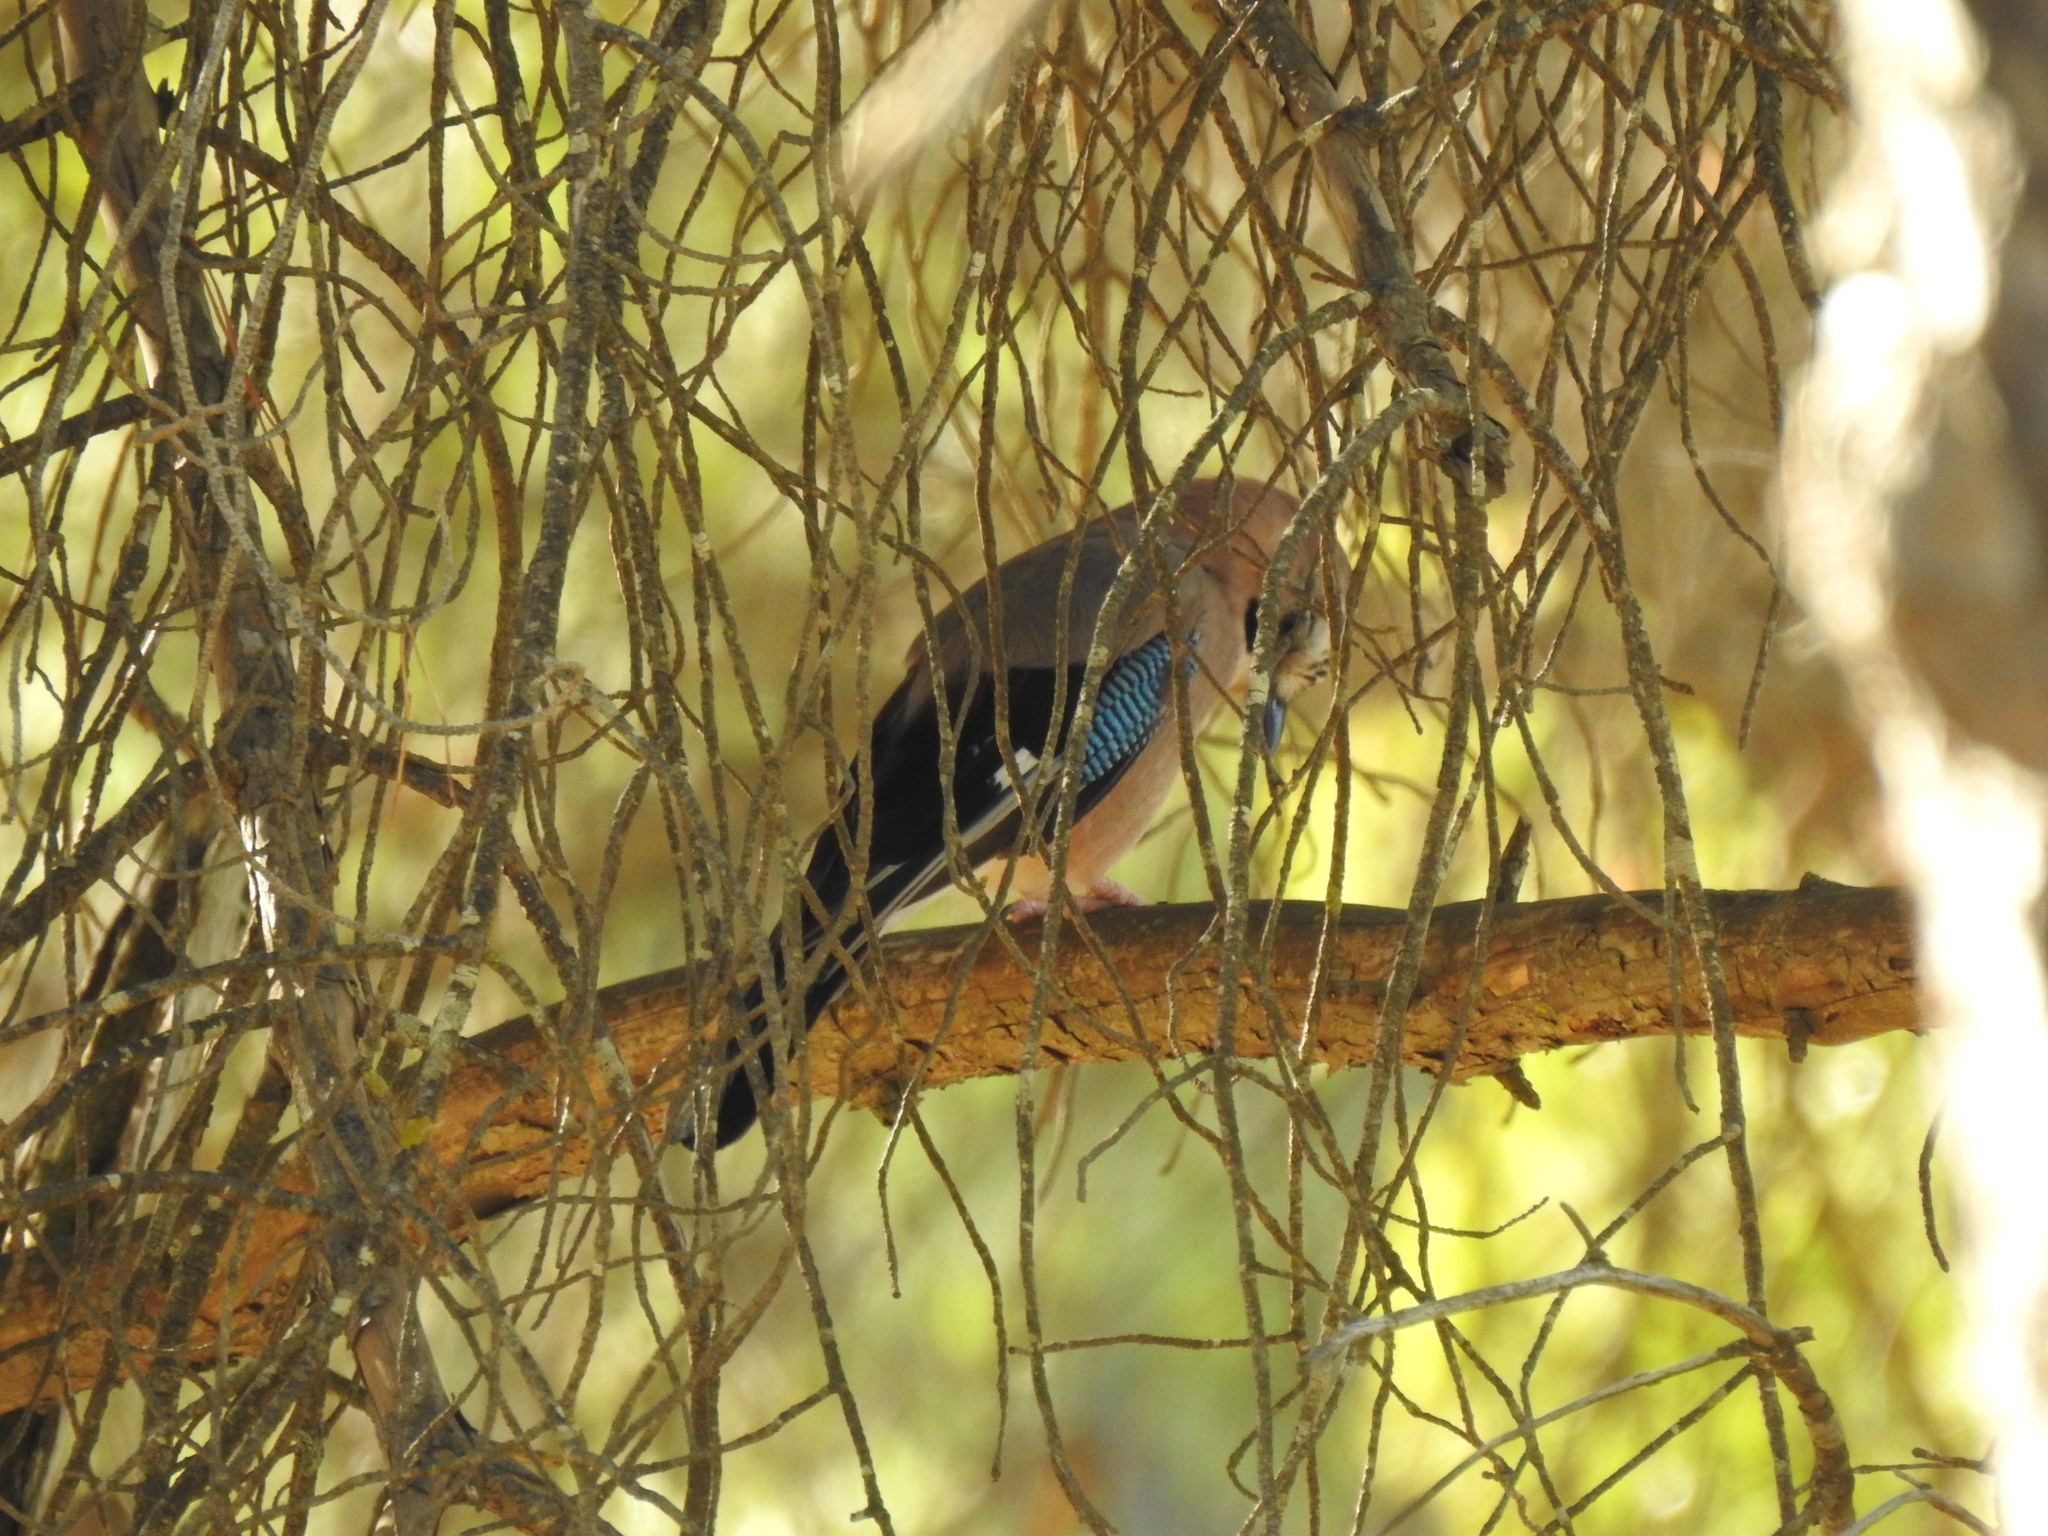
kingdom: Animalia
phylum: Chordata
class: Aves
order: Passeriformes
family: Corvidae
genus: Garrulus
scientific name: Garrulus glandarius
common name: Eurasian jay
